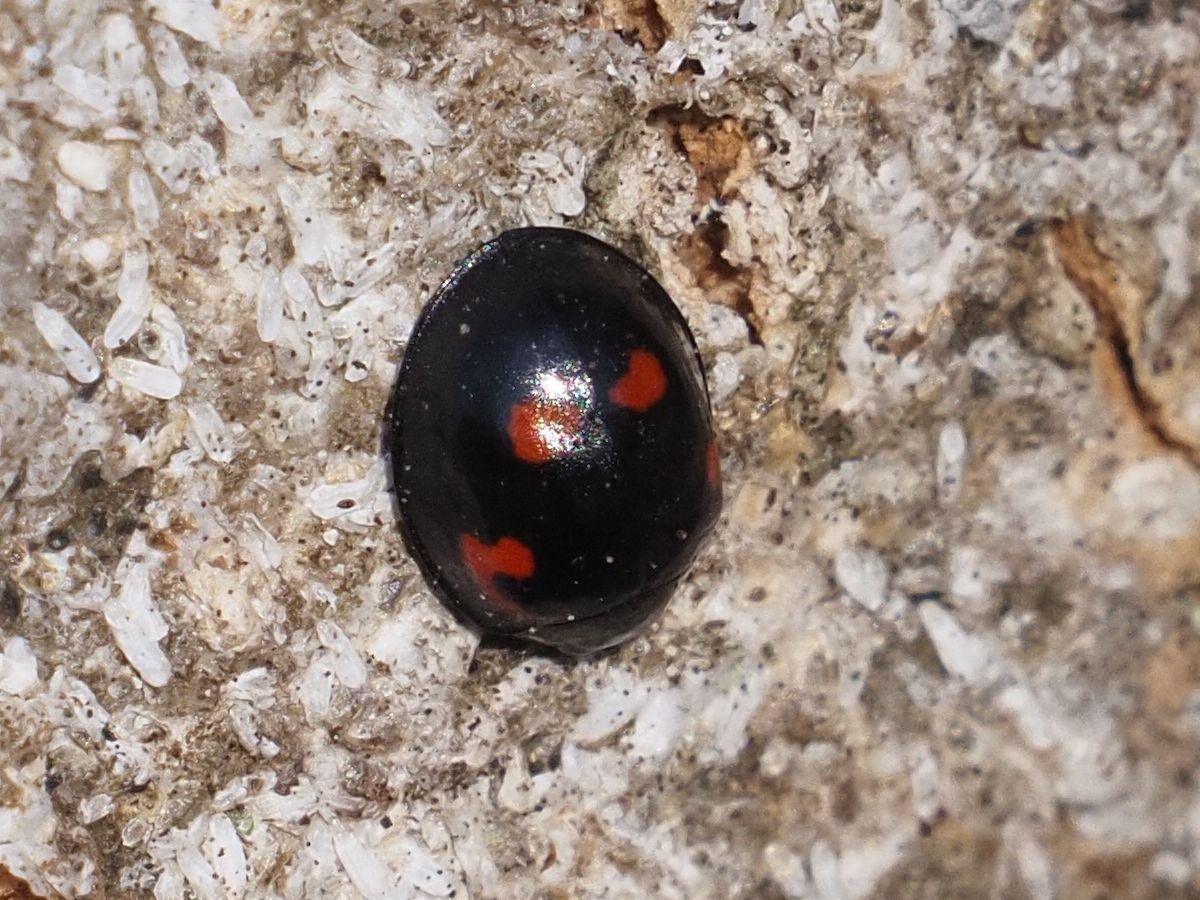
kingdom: Animalia
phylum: Arthropoda
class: Insecta
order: Coleoptera
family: Coccinellidae
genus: Brumus
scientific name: Brumus quadripustulatus
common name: Ladybird beetle
